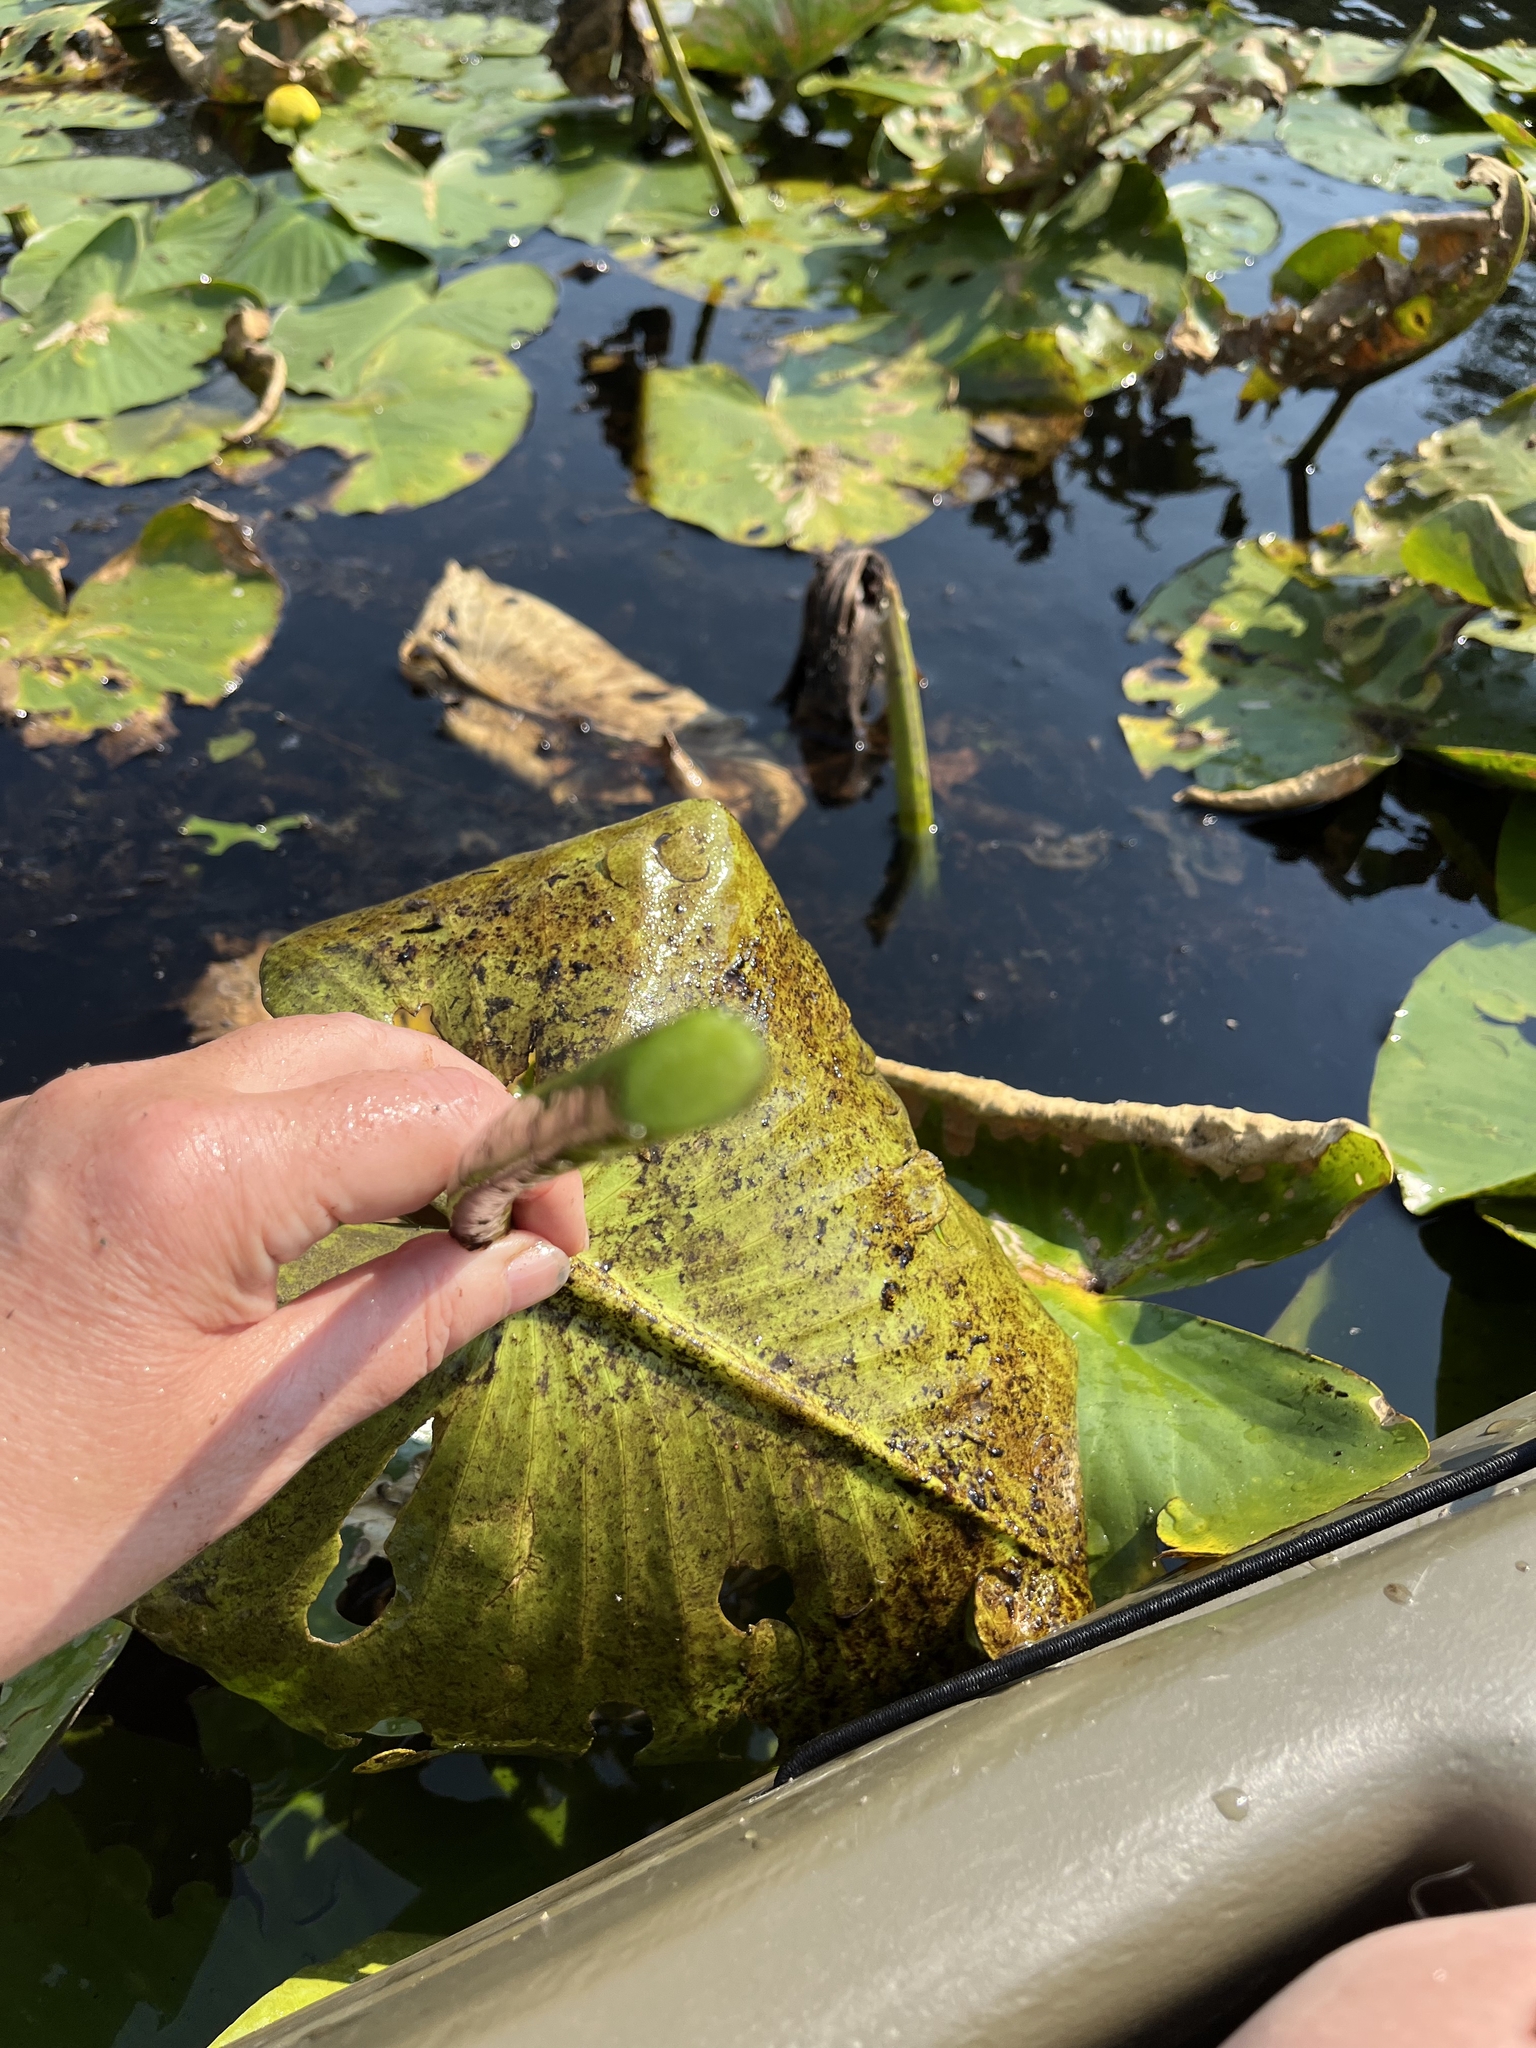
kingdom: Plantae
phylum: Tracheophyta
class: Magnoliopsida
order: Nymphaeales
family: Nymphaeaceae
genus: Nuphar
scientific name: Nuphar advena
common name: Spatter-dock
